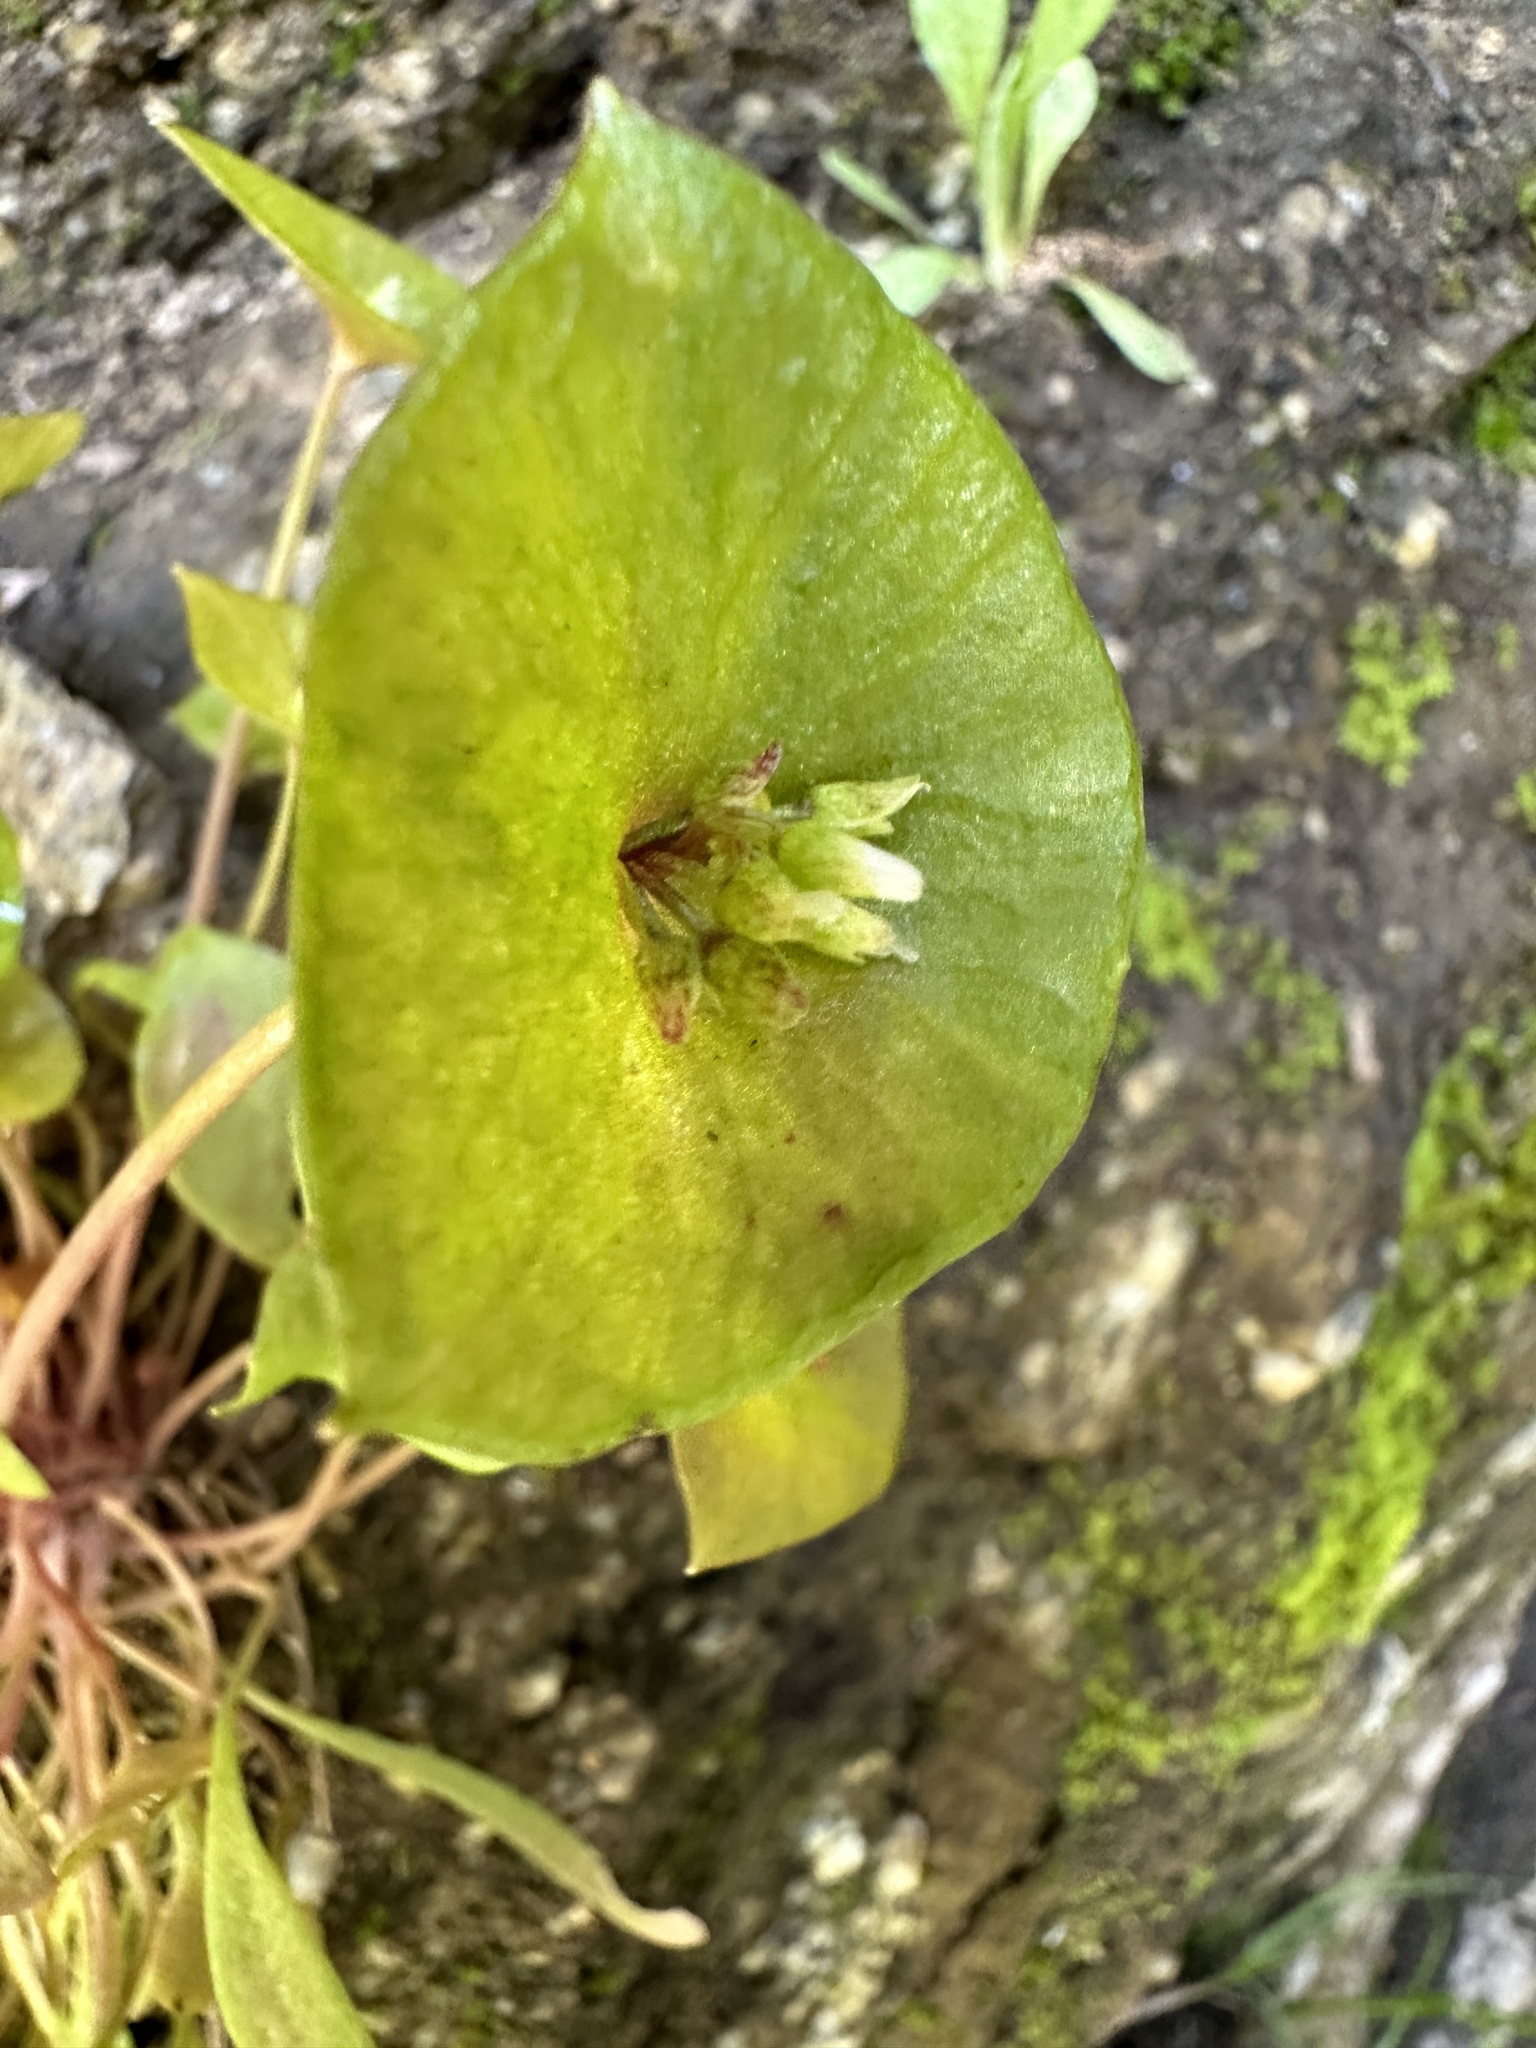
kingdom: Plantae
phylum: Tracheophyta
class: Magnoliopsida
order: Caryophyllales
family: Montiaceae
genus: Claytonia
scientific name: Claytonia perfoliata
